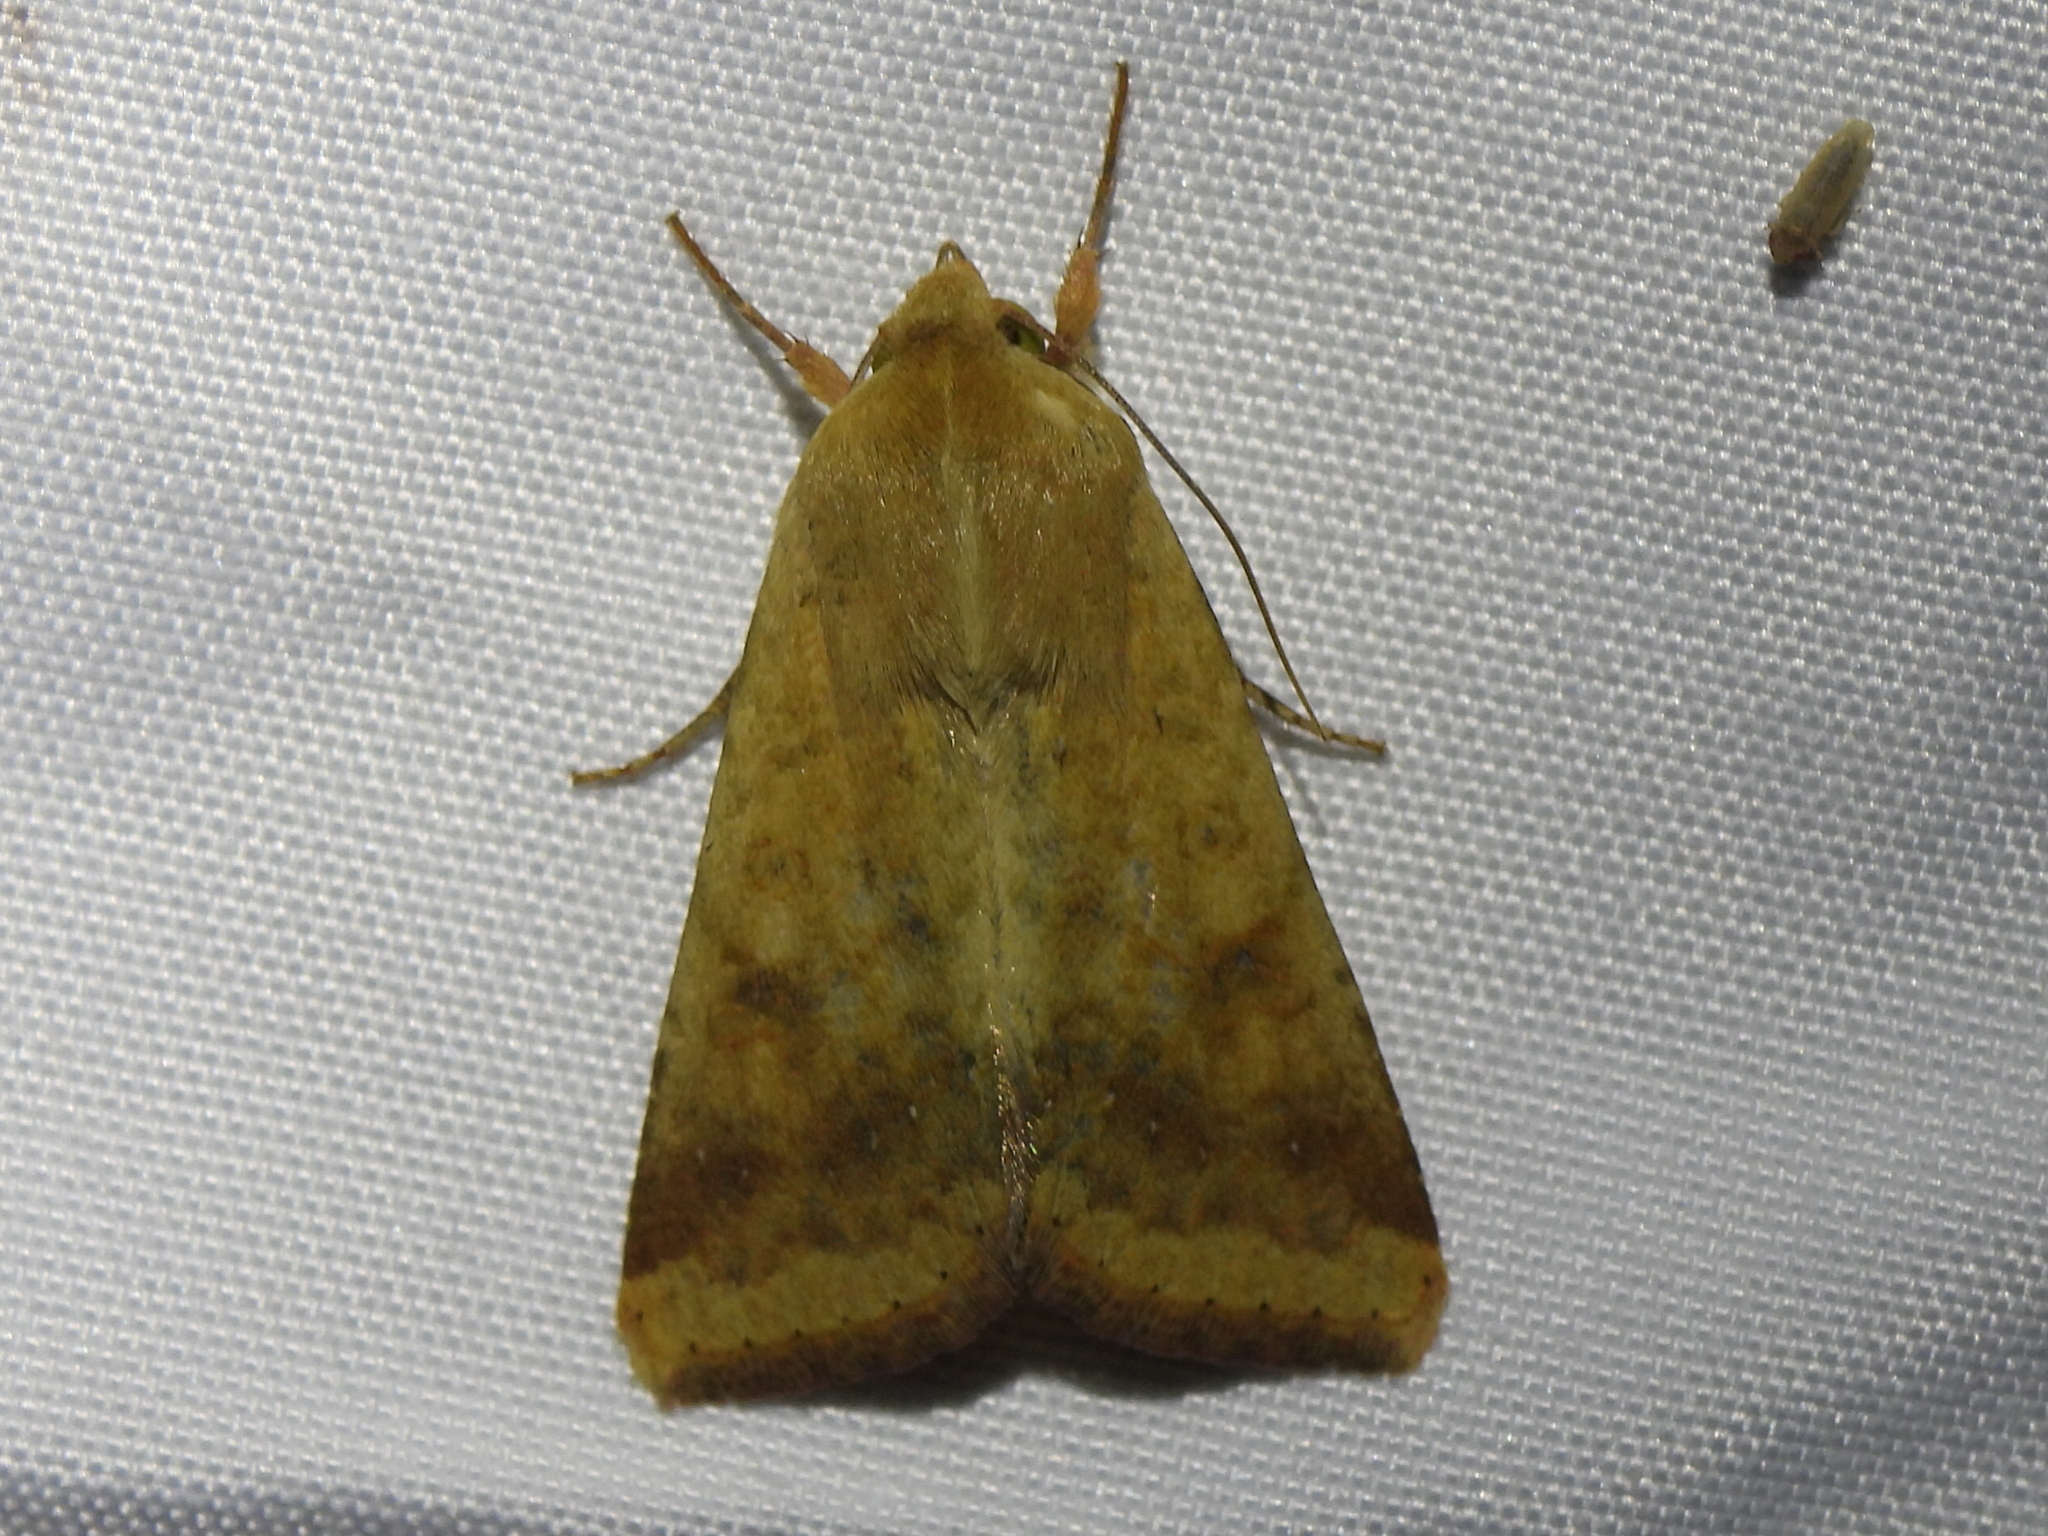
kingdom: Animalia
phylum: Arthropoda
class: Insecta
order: Lepidoptera
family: Noctuidae
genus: Helicoverpa
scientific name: Helicoverpa zea
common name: Bollworm
